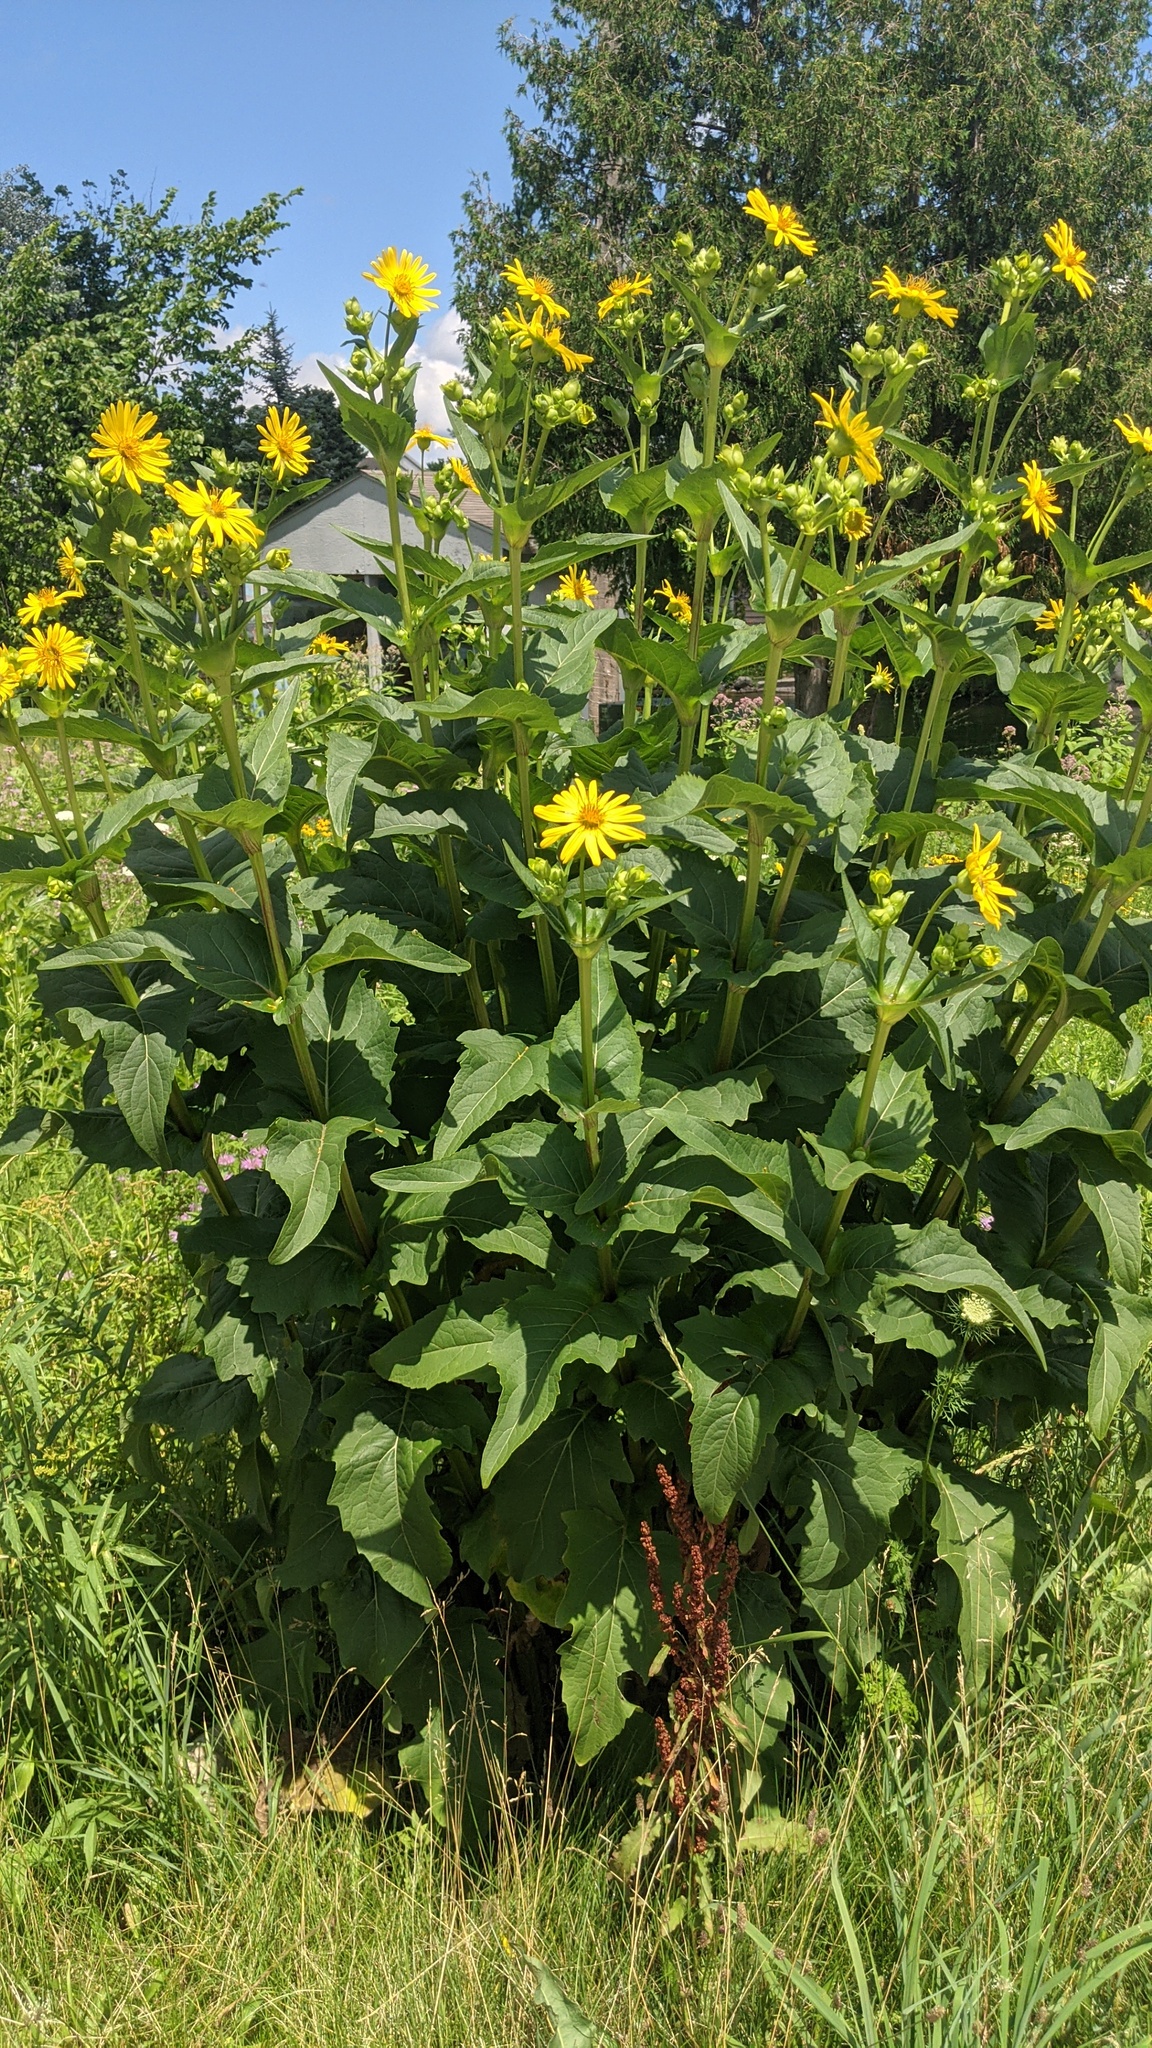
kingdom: Plantae
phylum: Tracheophyta
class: Magnoliopsida
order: Asterales
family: Asteraceae
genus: Silphium
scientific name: Silphium perfoliatum
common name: Cup-plant
